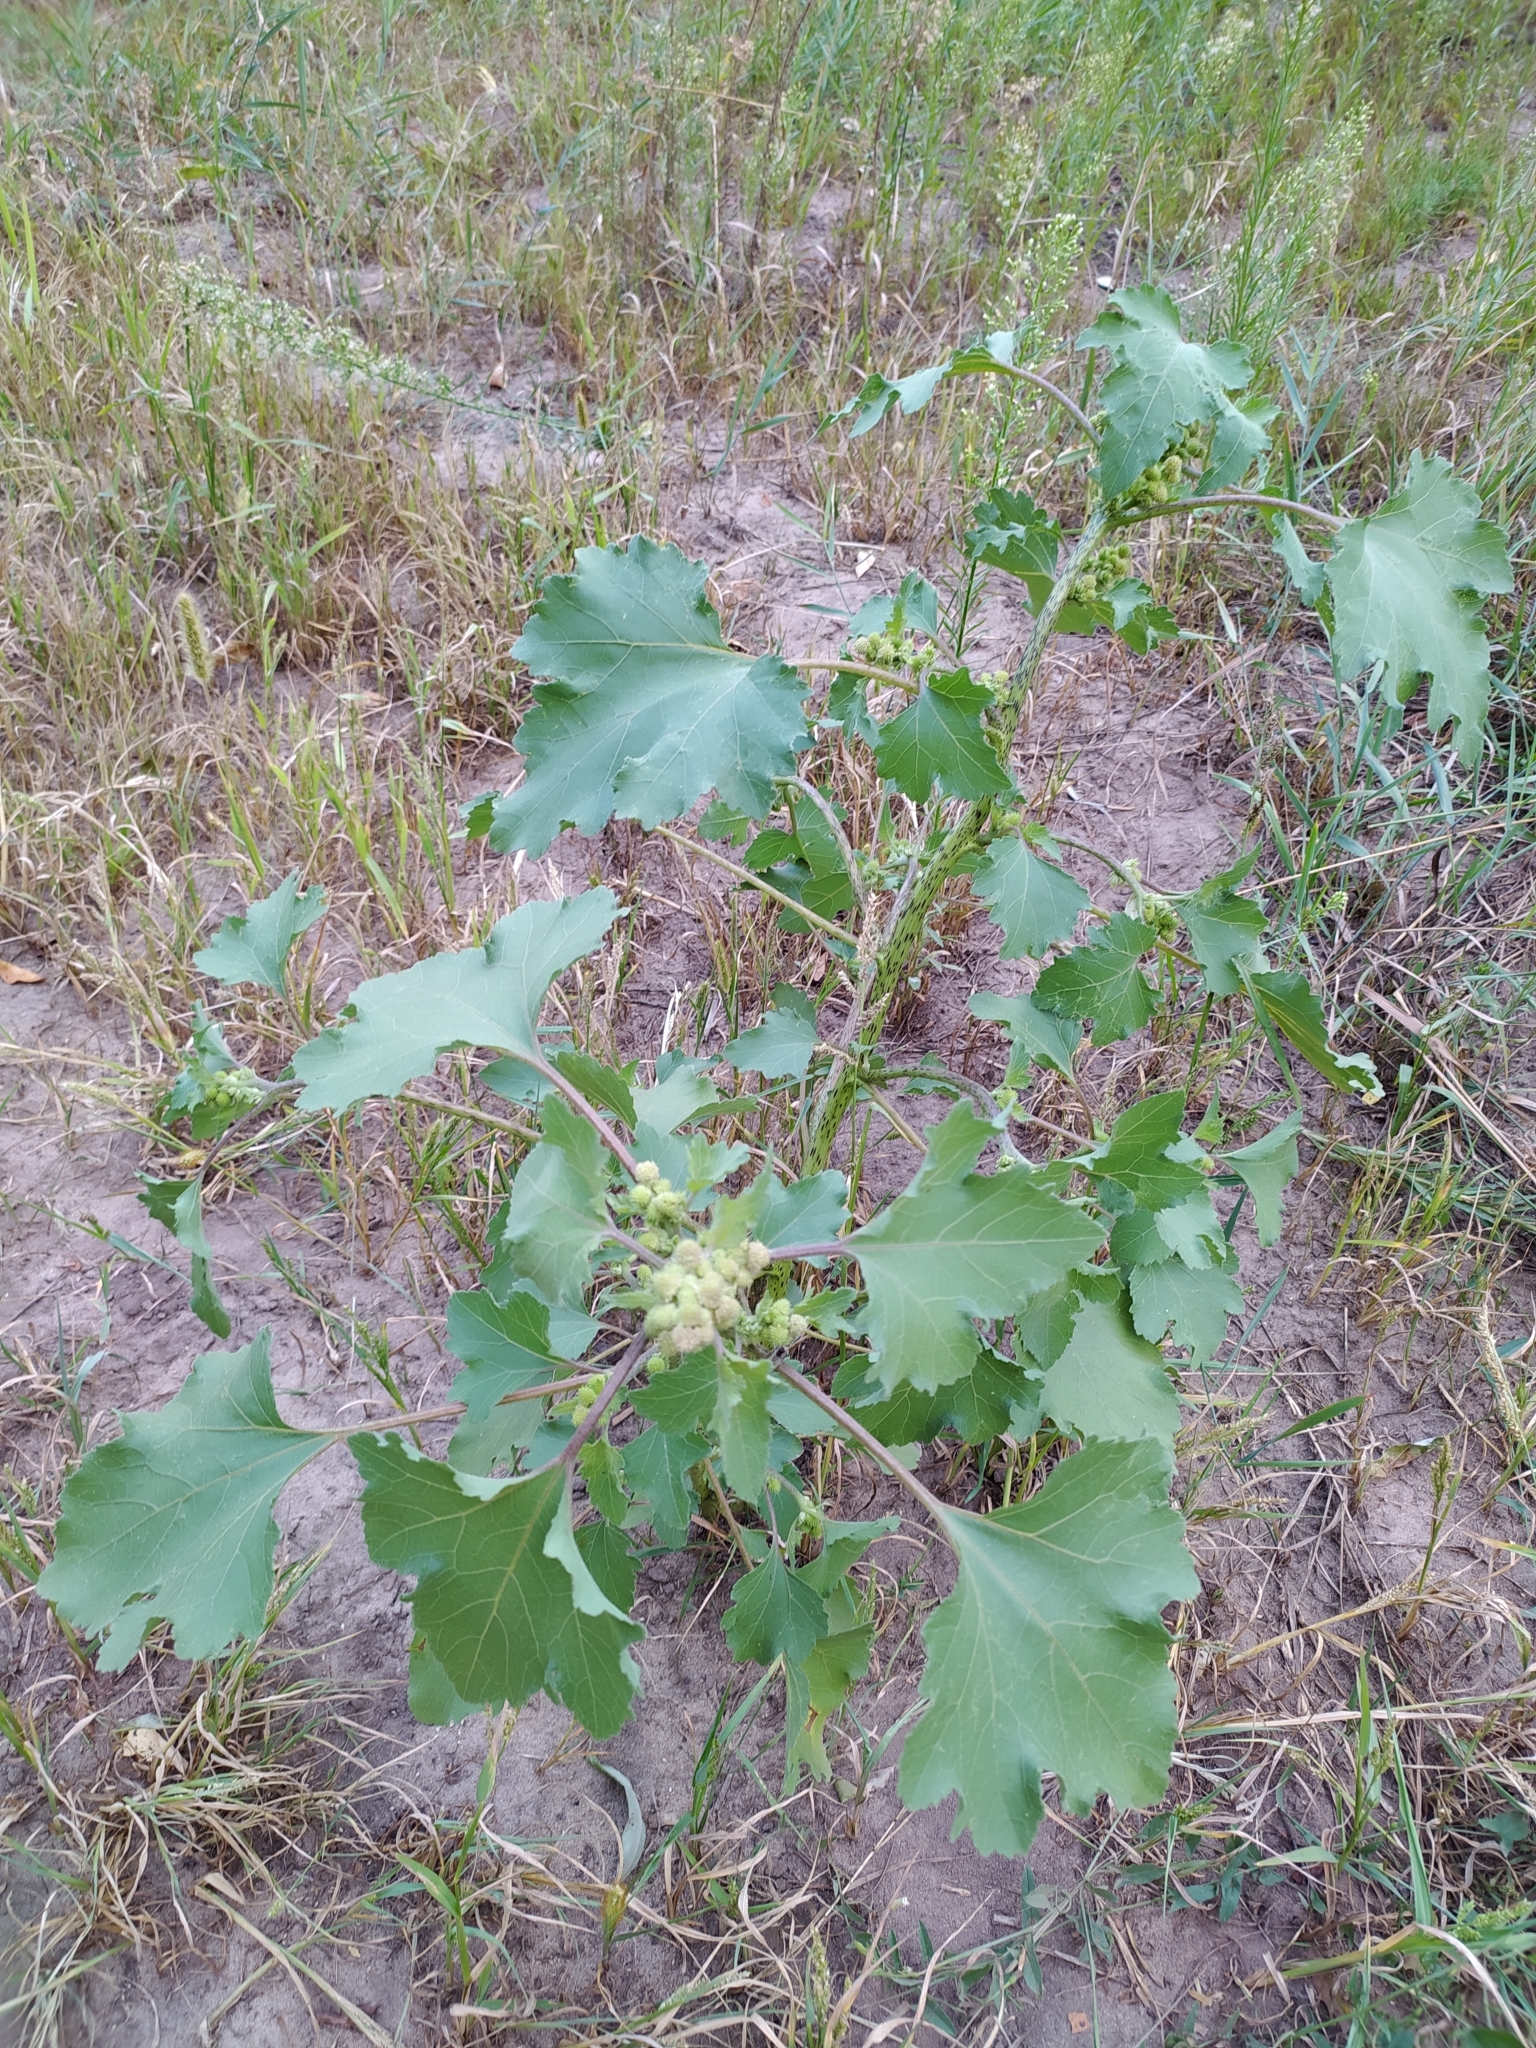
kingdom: Plantae
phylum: Tracheophyta
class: Magnoliopsida
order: Asterales
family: Asteraceae
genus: Xanthium
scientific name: Xanthium orientale
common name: Californian burr
